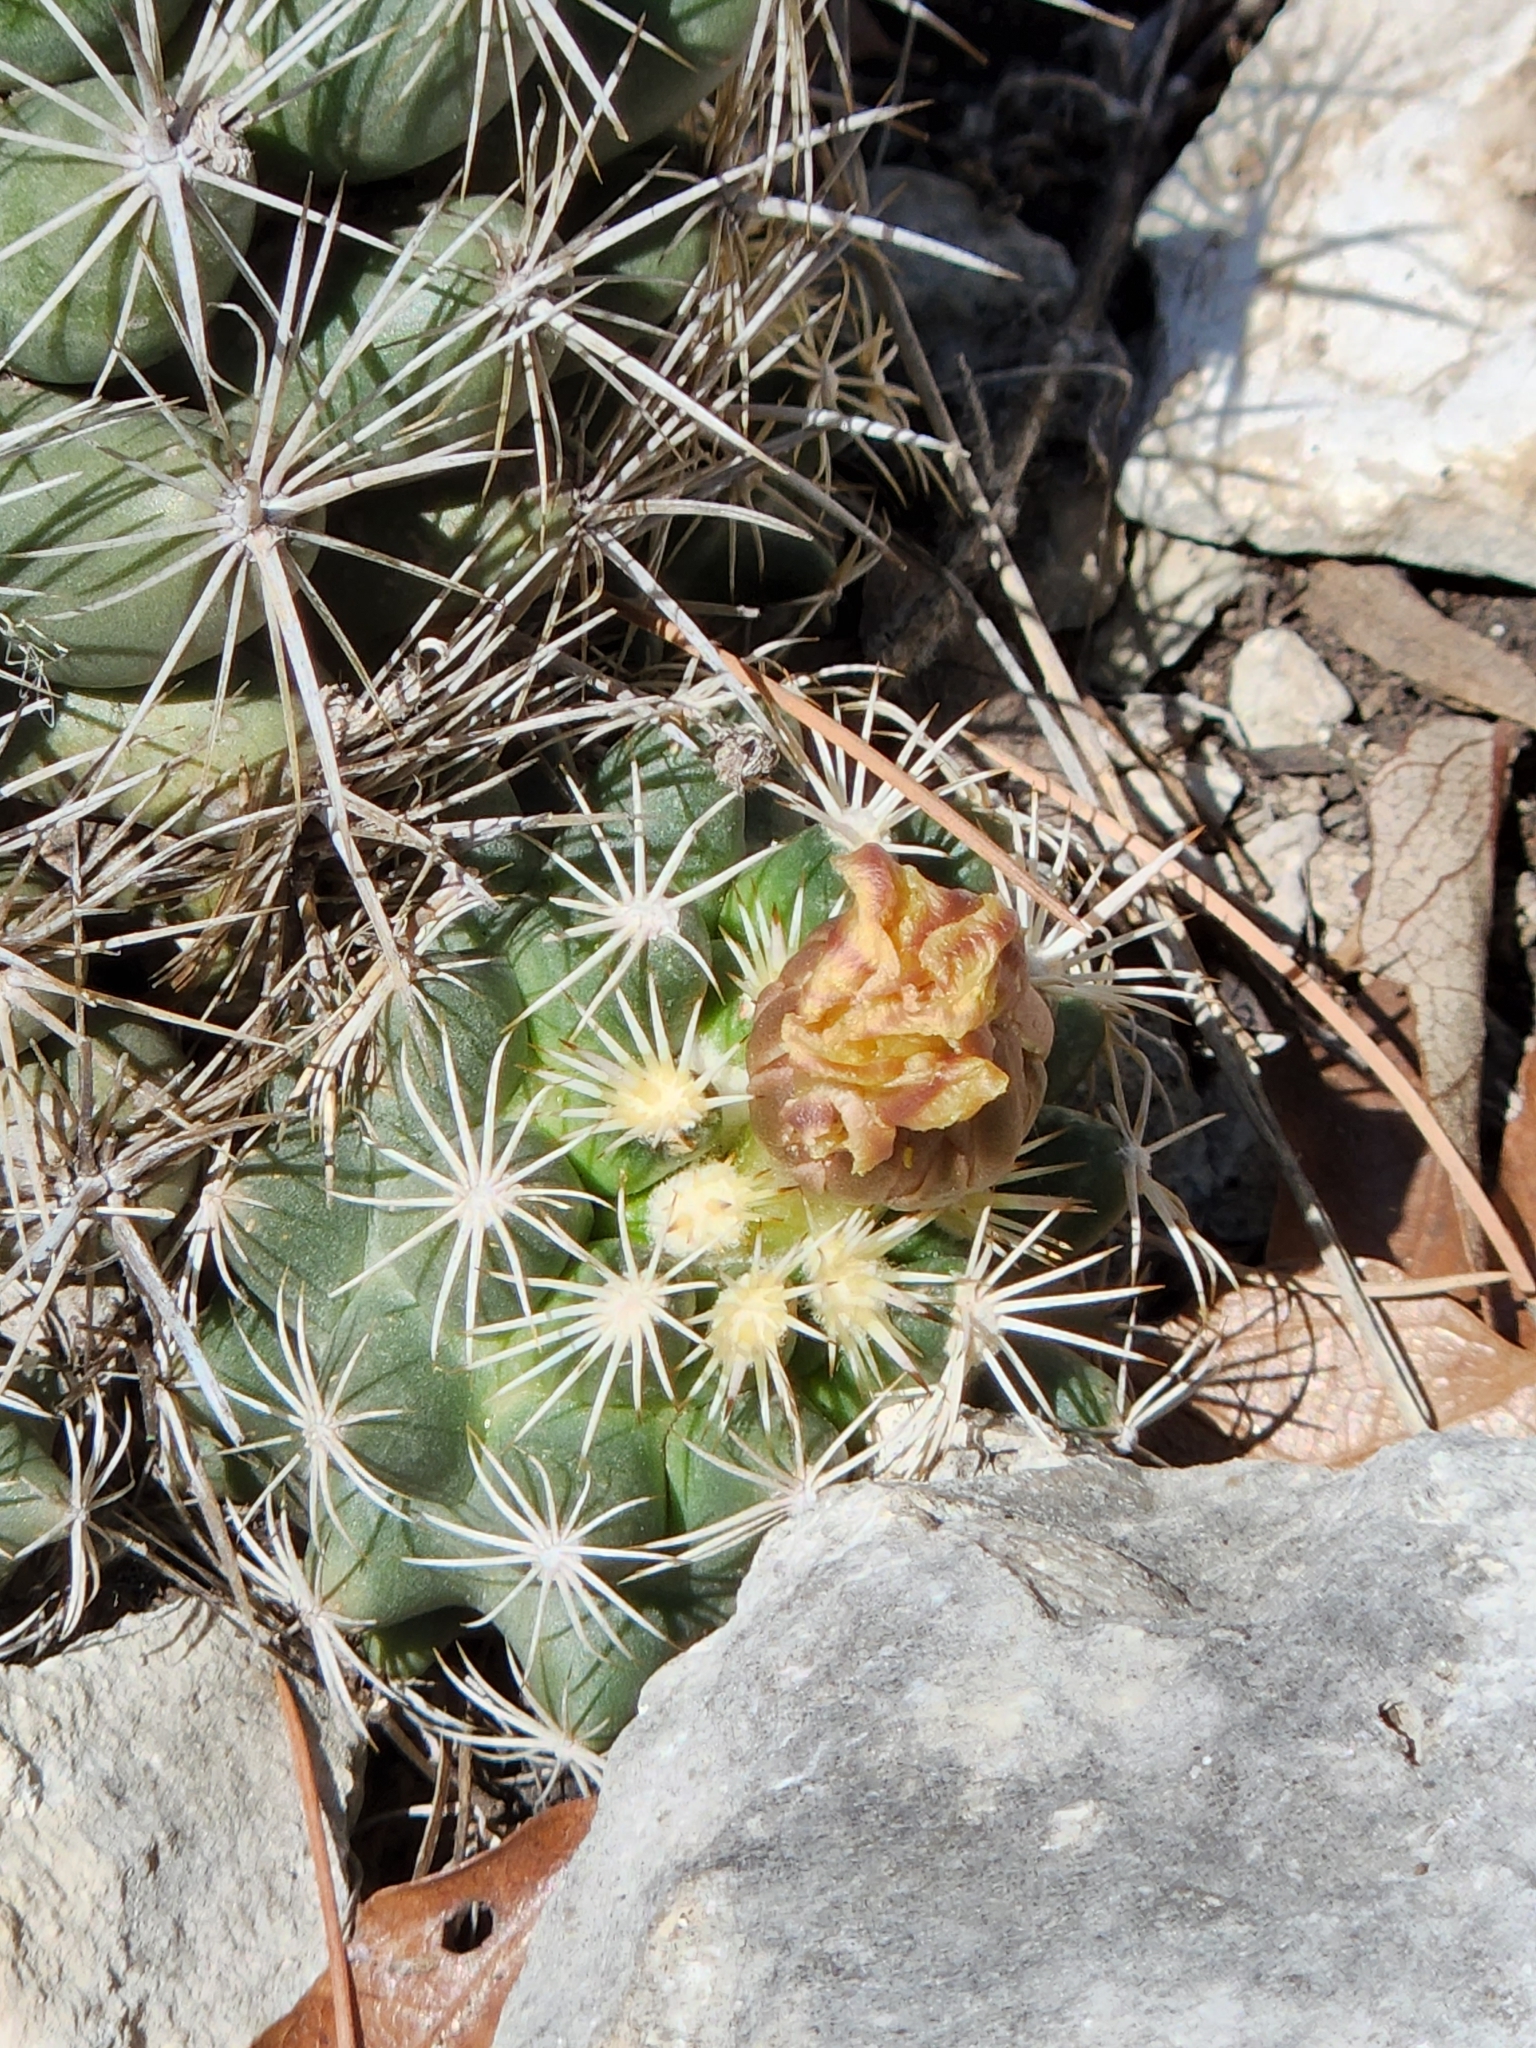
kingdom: Plantae
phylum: Tracheophyta
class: Magnoliopsida
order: Caryophyllales
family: Cactaceae
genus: Coryphantha
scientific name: Coryphantha sulcata
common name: Finger cactus
